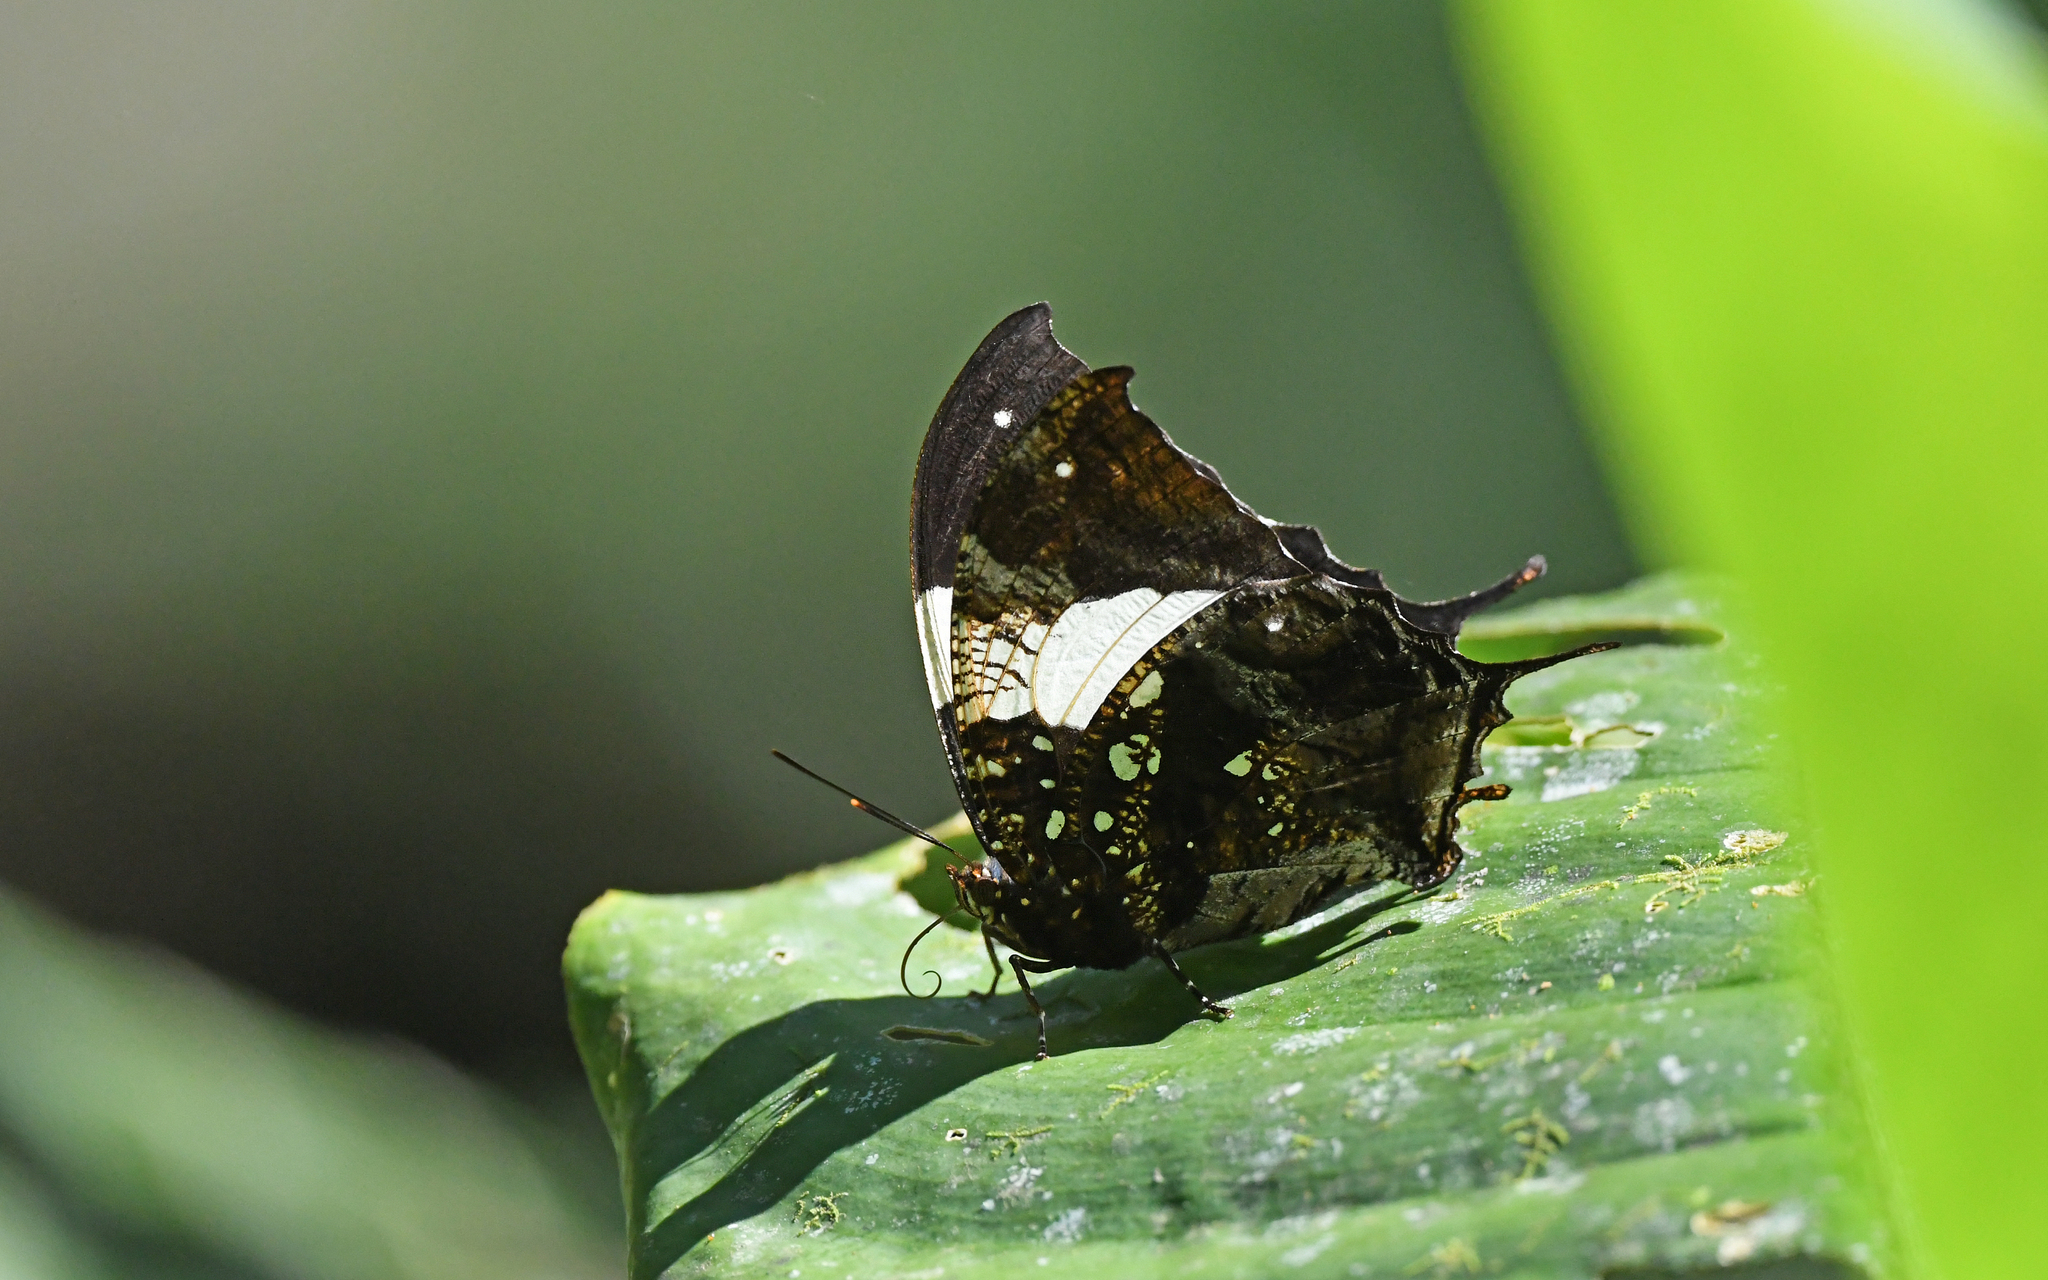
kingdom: Animalia
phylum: Arthropoda
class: Insecta
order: Lepidoptera
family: Nymphalidae
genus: Hypna
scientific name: Hypna clytemnestra
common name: Silver-studded leafwing
